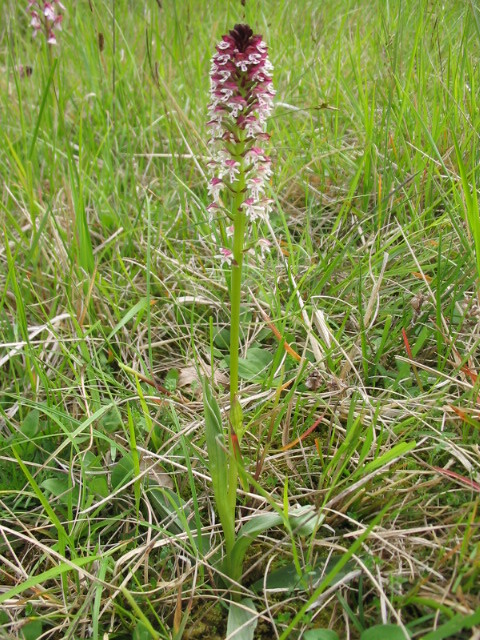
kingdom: Plantae
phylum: Tracheophyta
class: Liliopsida
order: Asparagales
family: Orchidaceae
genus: Neotinea
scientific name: Neotinea ustulata
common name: Burnt orchid
